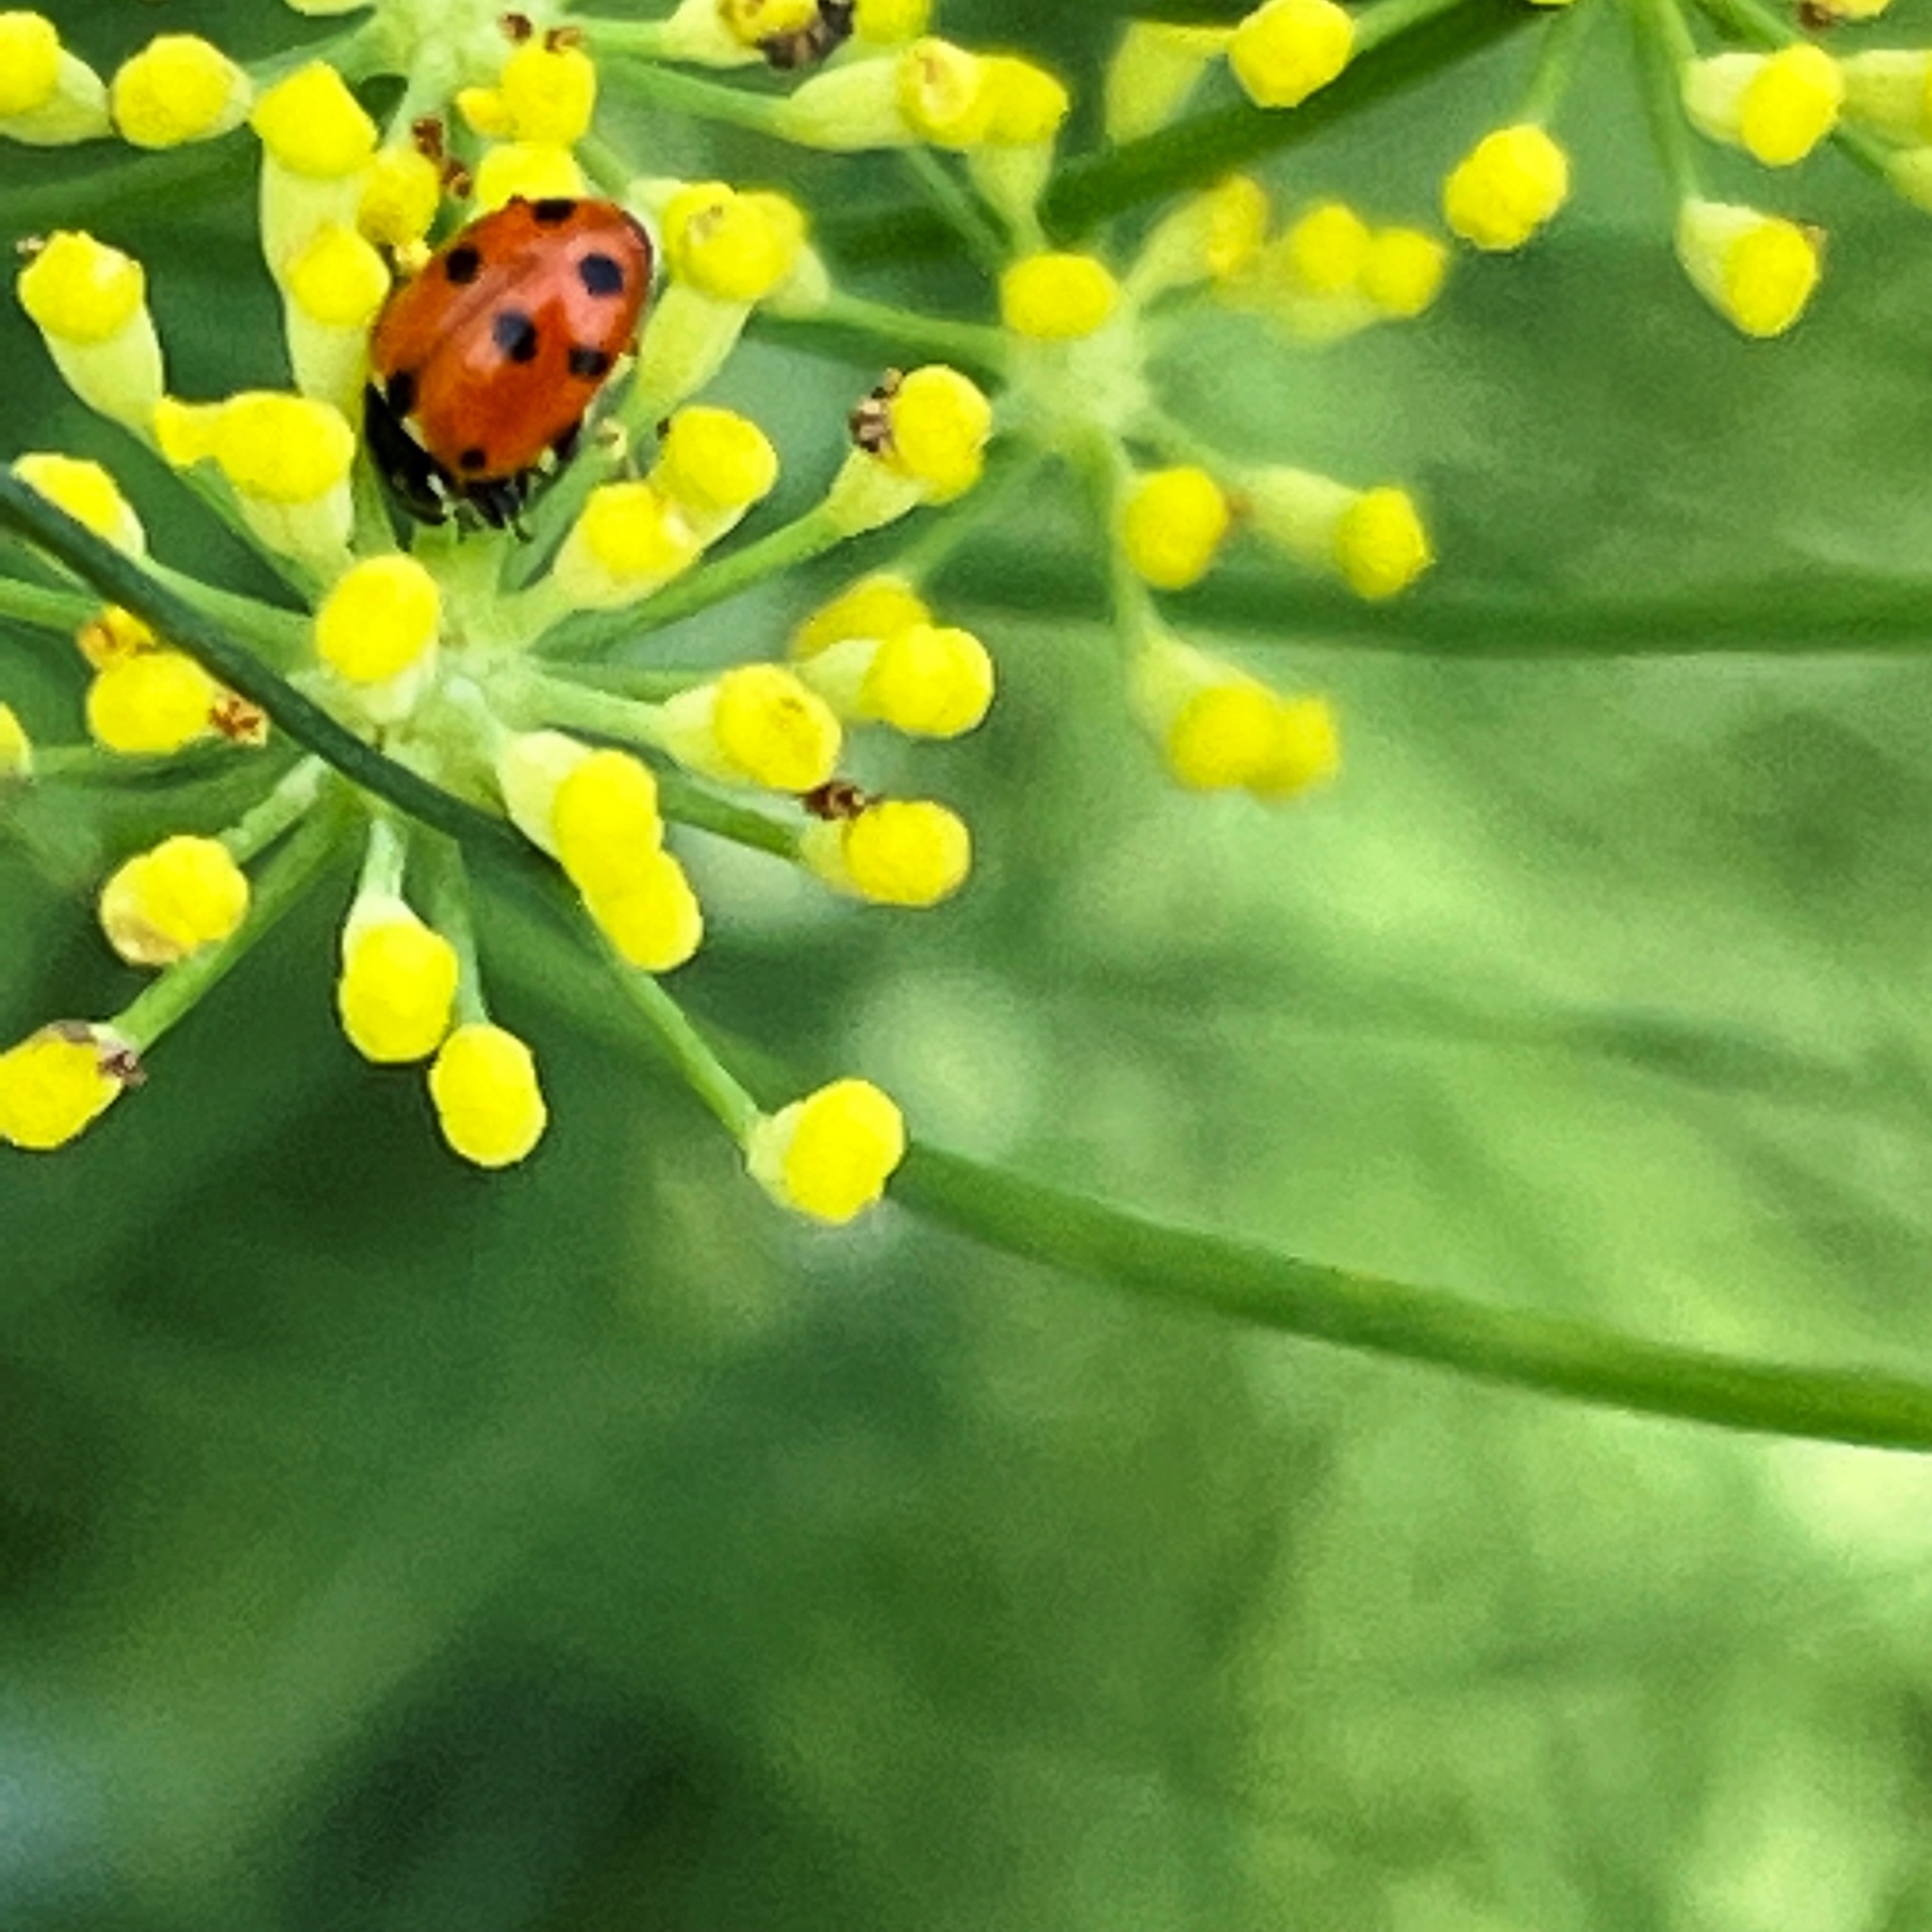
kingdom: Animalia
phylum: Arthropoda
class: Insecta
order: Coleoptera
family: Coccinellidae
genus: Hippodamia
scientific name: Hippodamia variegata
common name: Ladybird beetle
